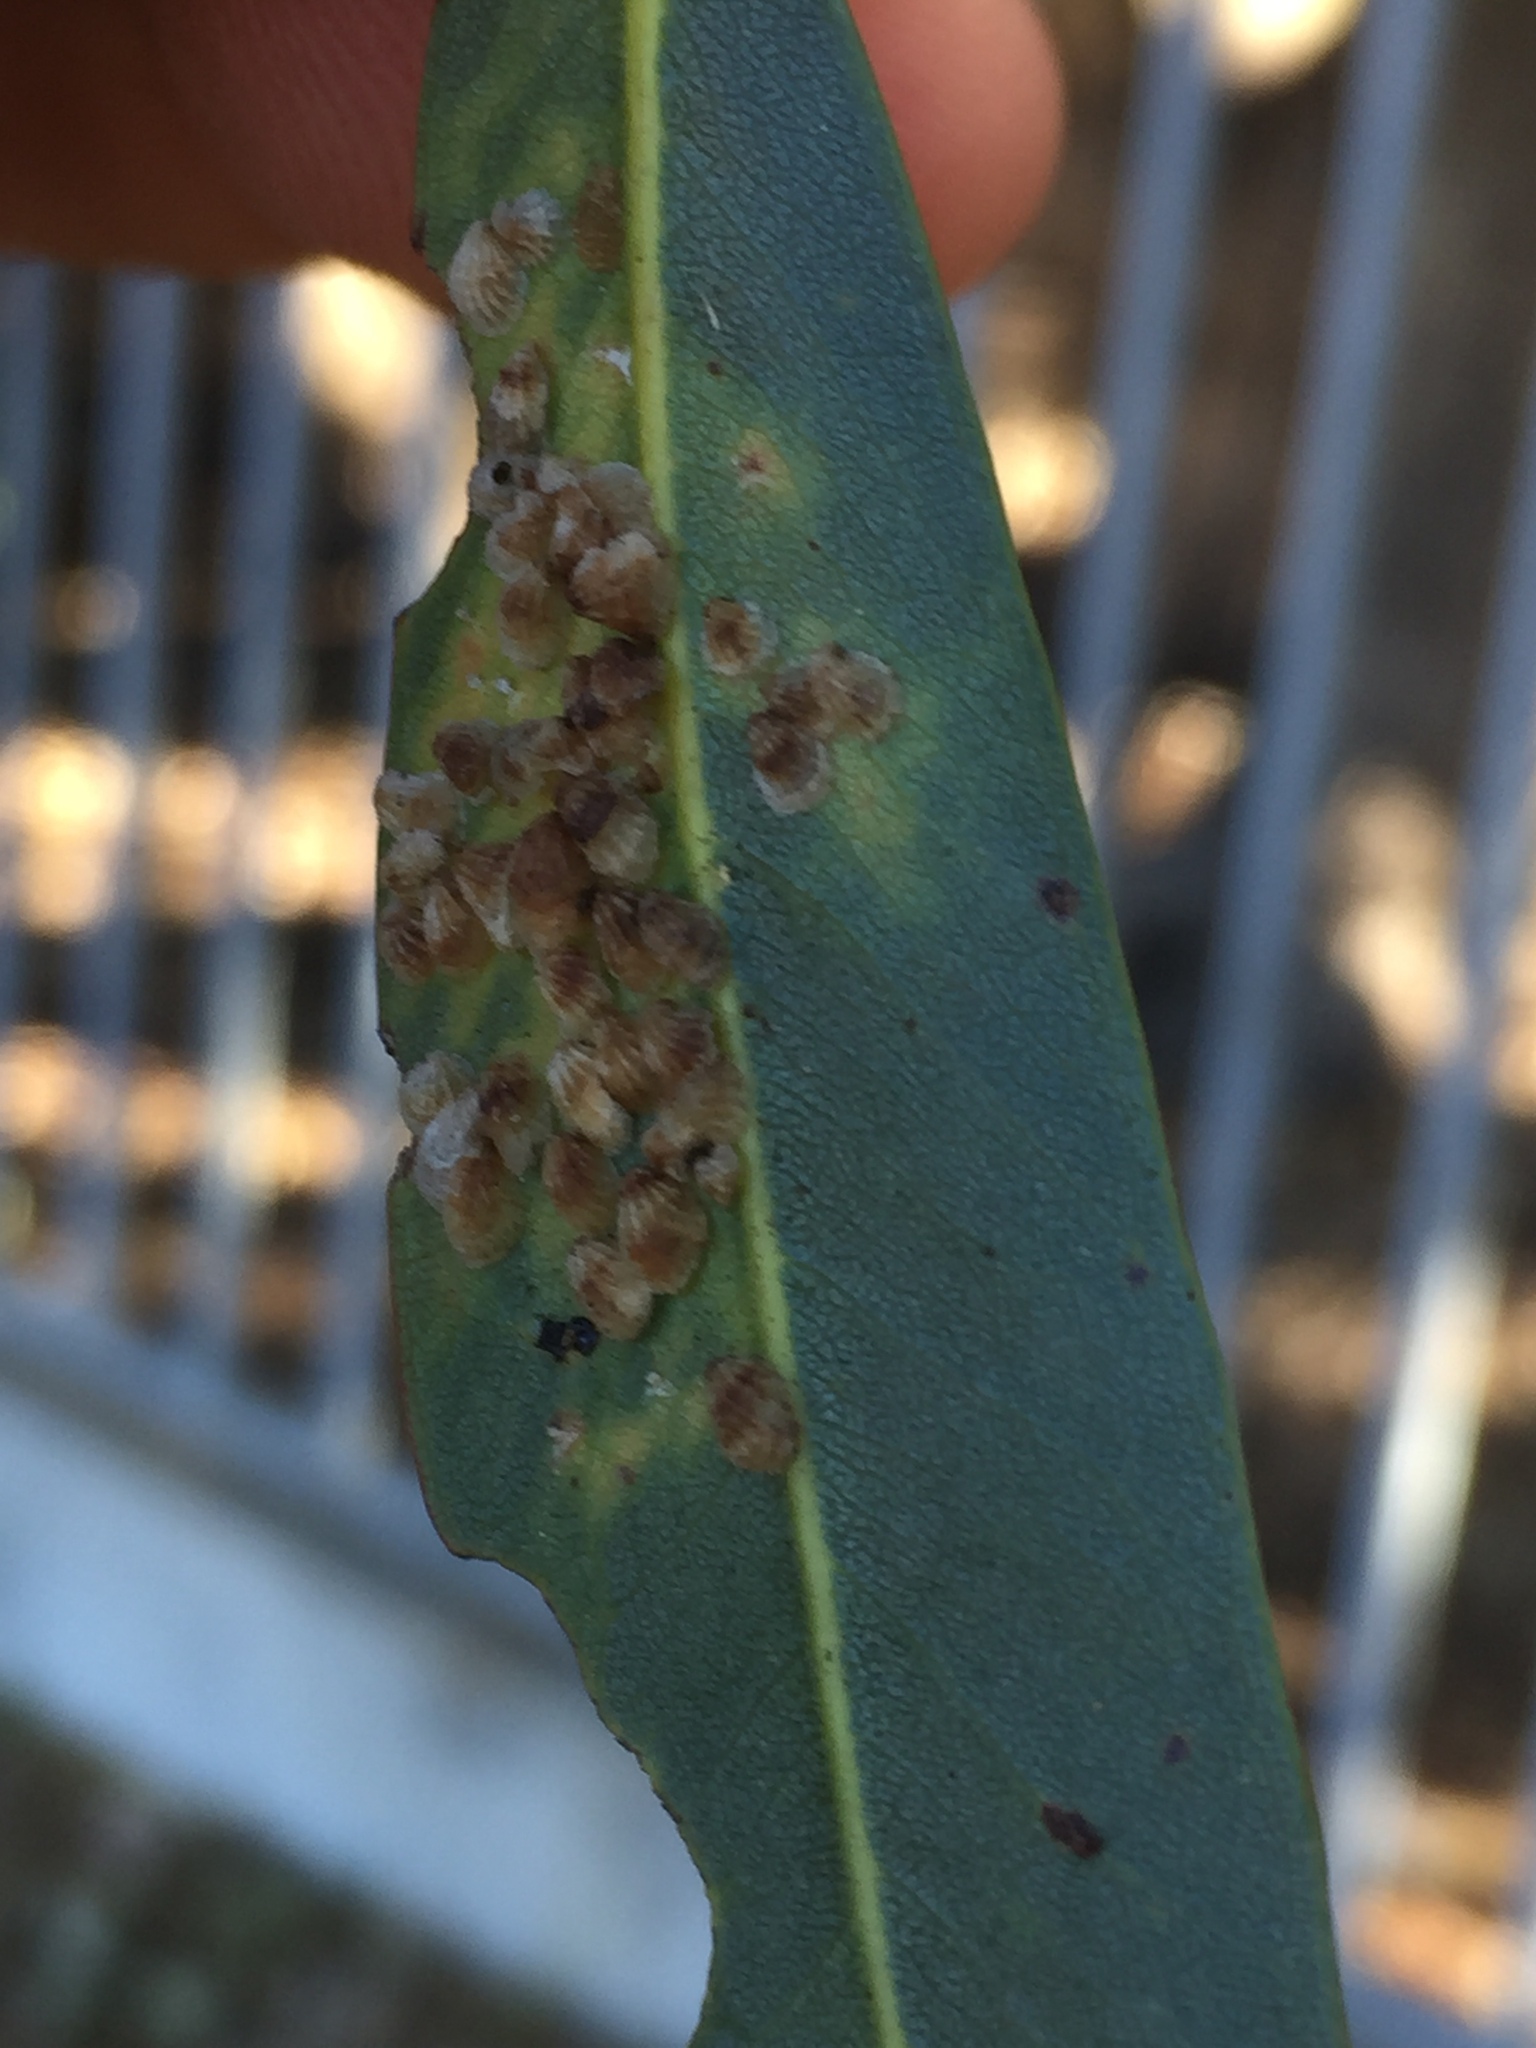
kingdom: Animalia
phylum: Arthropoda
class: Insecta
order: Hemiptera
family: Aphalaridae
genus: Spondyliaspis
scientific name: Spondyliaspis plicatuloides
